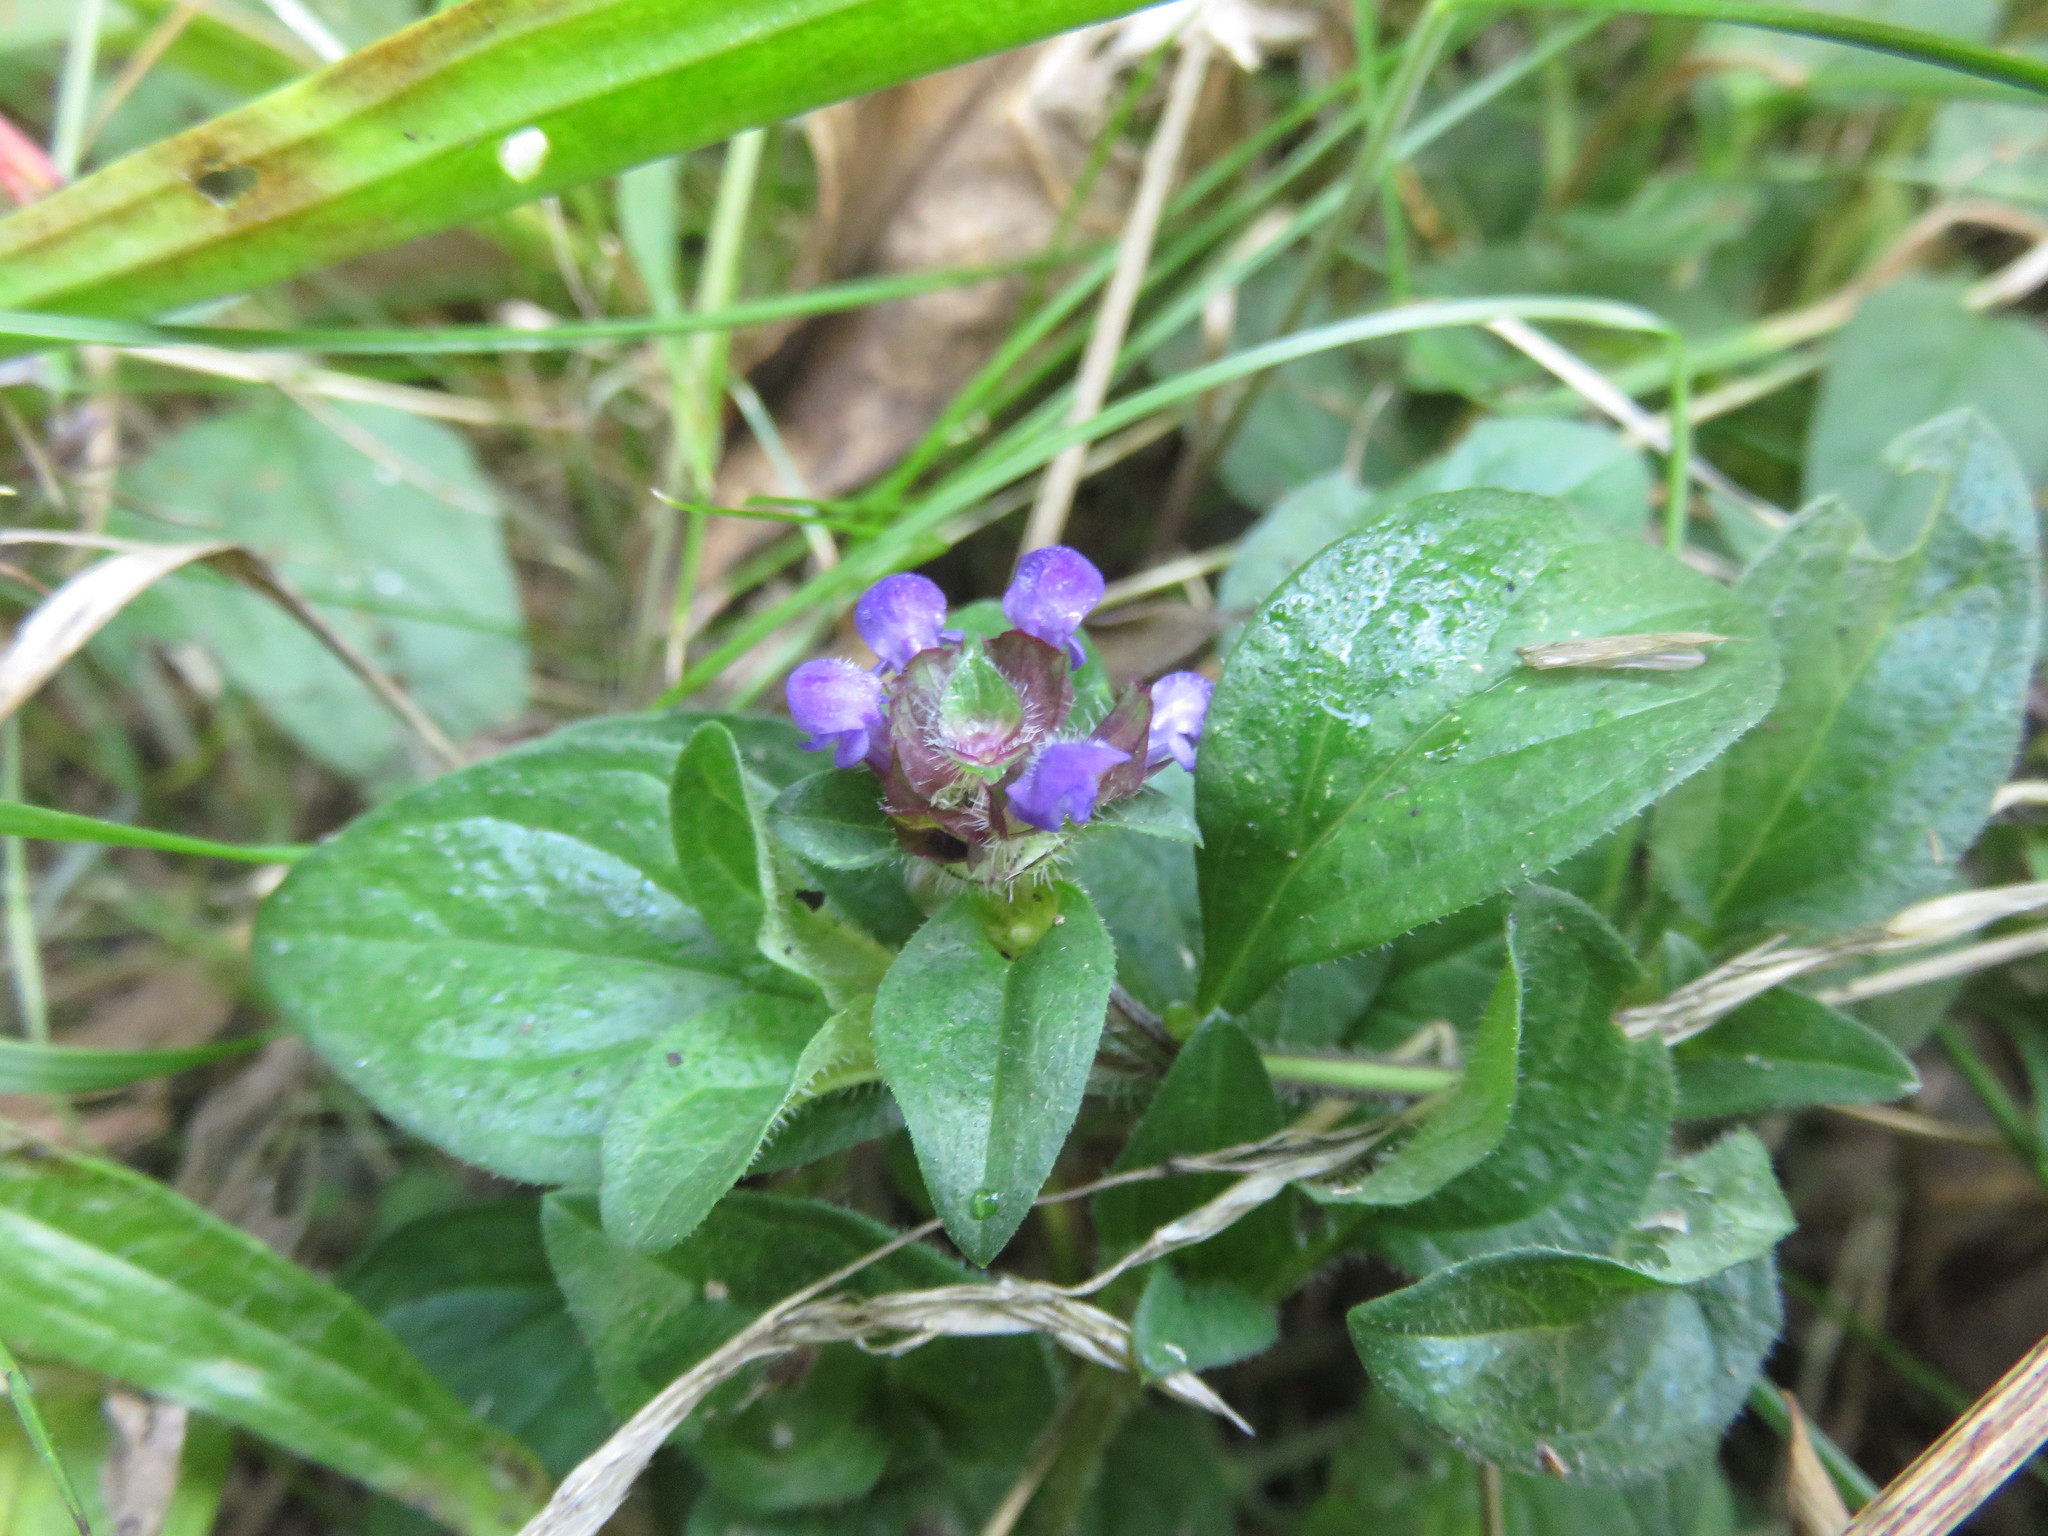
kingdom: Plantae
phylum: Tracheophyta
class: Magnoliopsida
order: Lamiales
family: Lamiaceae
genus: Prunella
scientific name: Prunella vulgaris
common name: Heal-all
